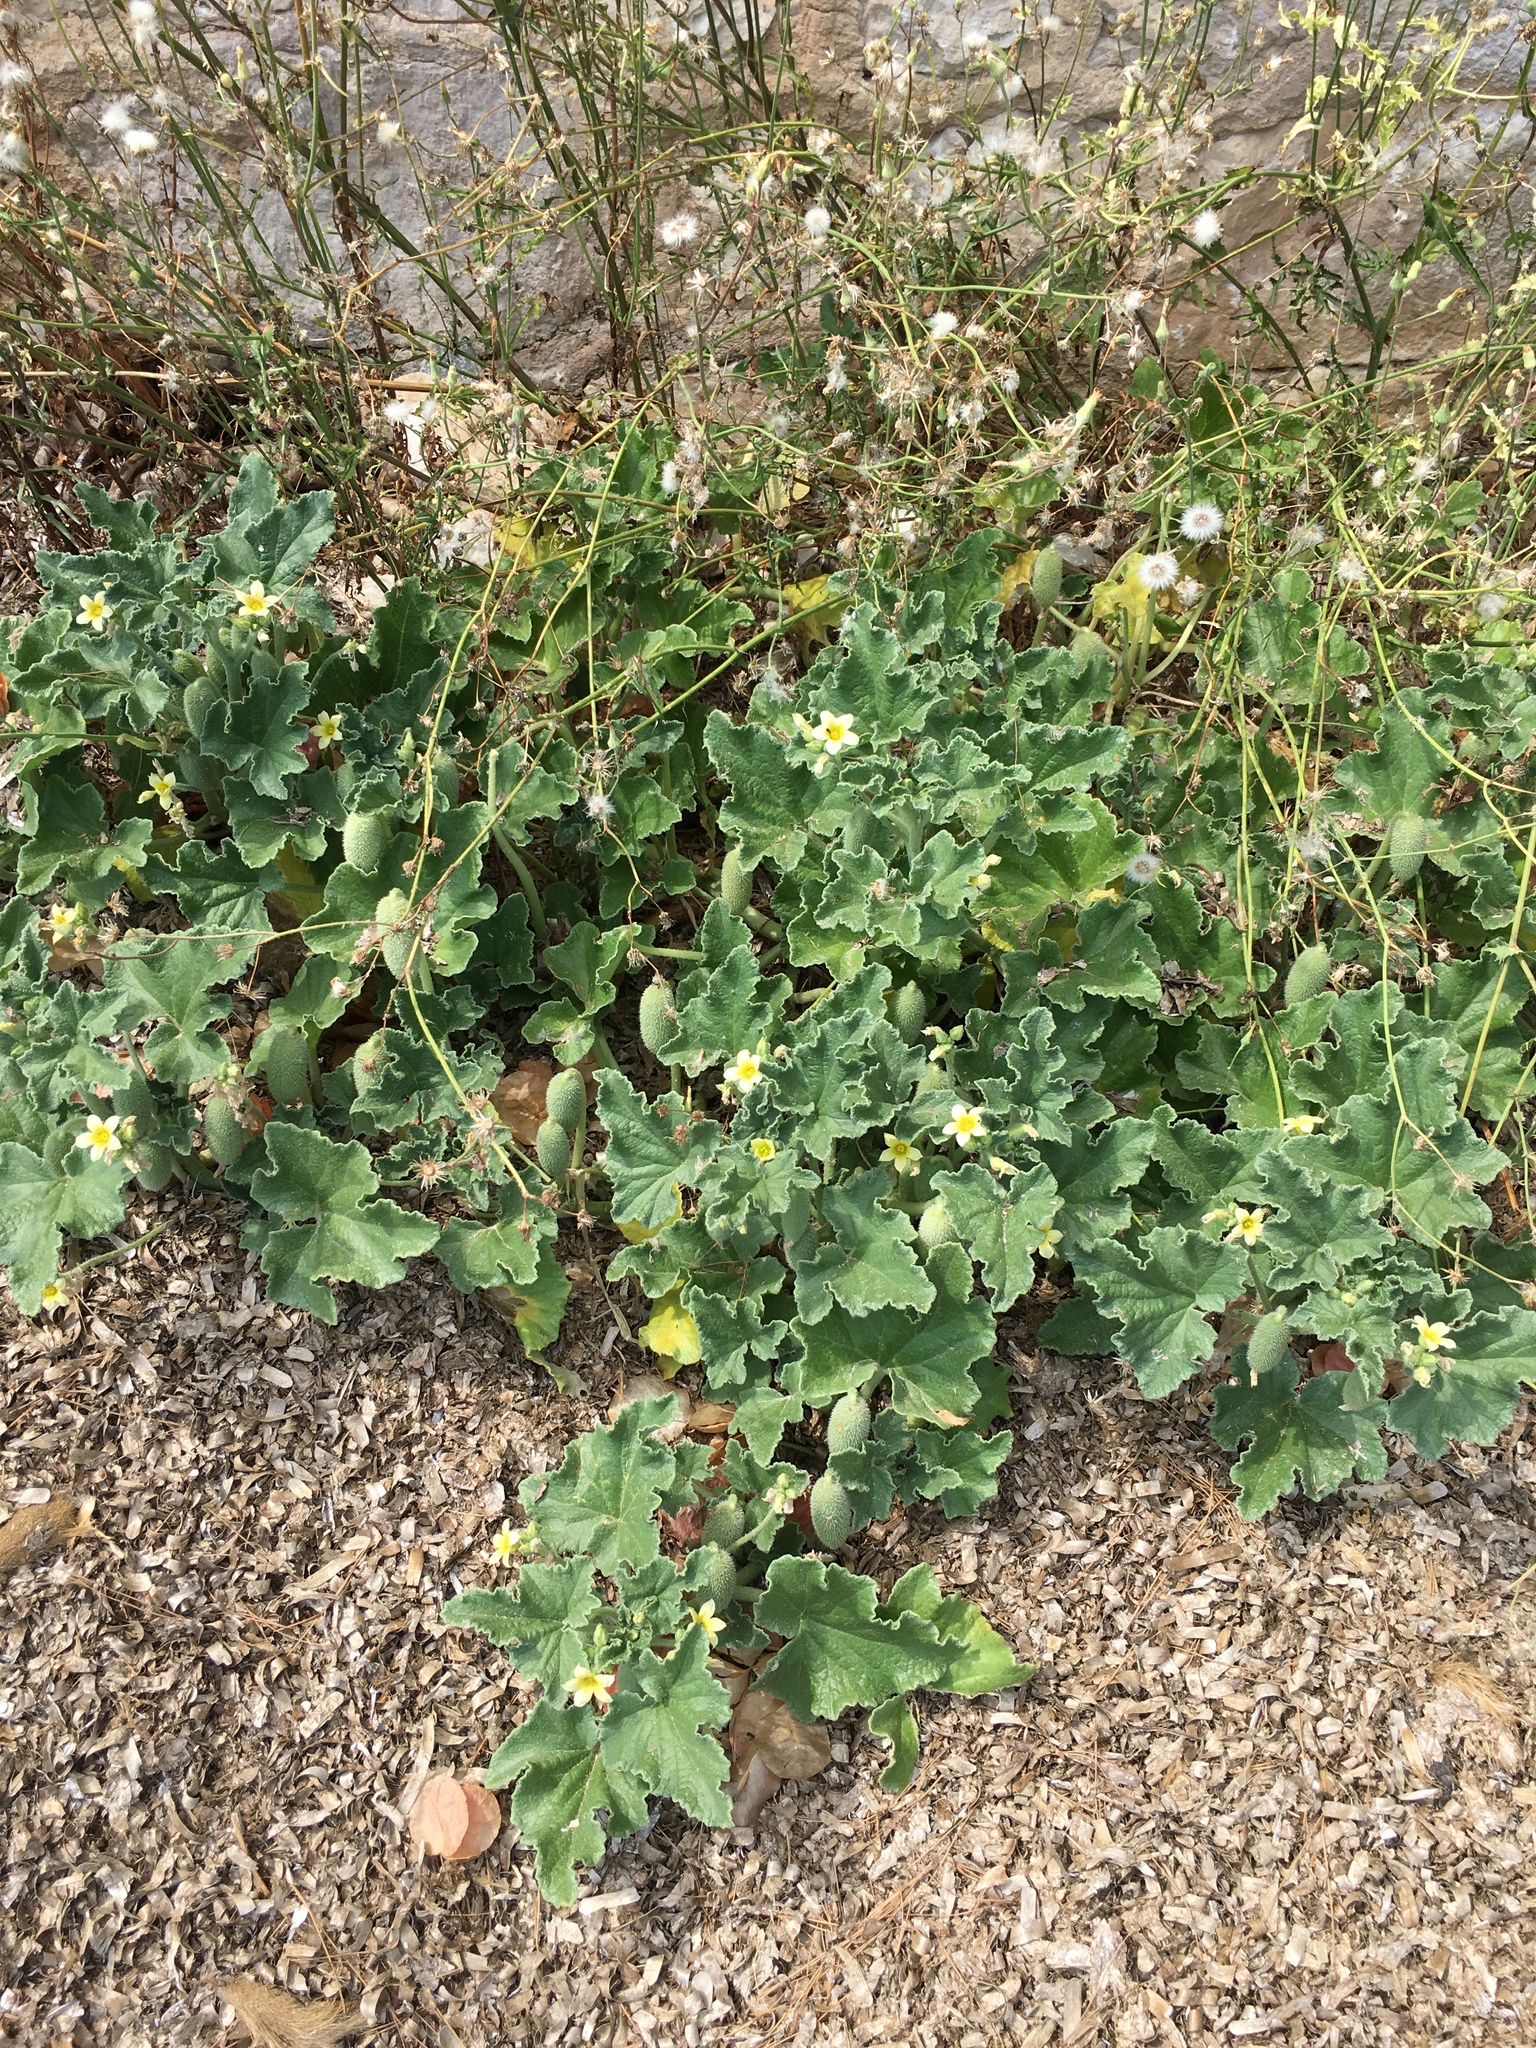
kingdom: Plantae
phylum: Tracheophyta
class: Magnoliopsida
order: Cucurbitales
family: Cucurbitaceae
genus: Ecballium
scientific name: Ecballium elaterium
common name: Squirting cucumber
